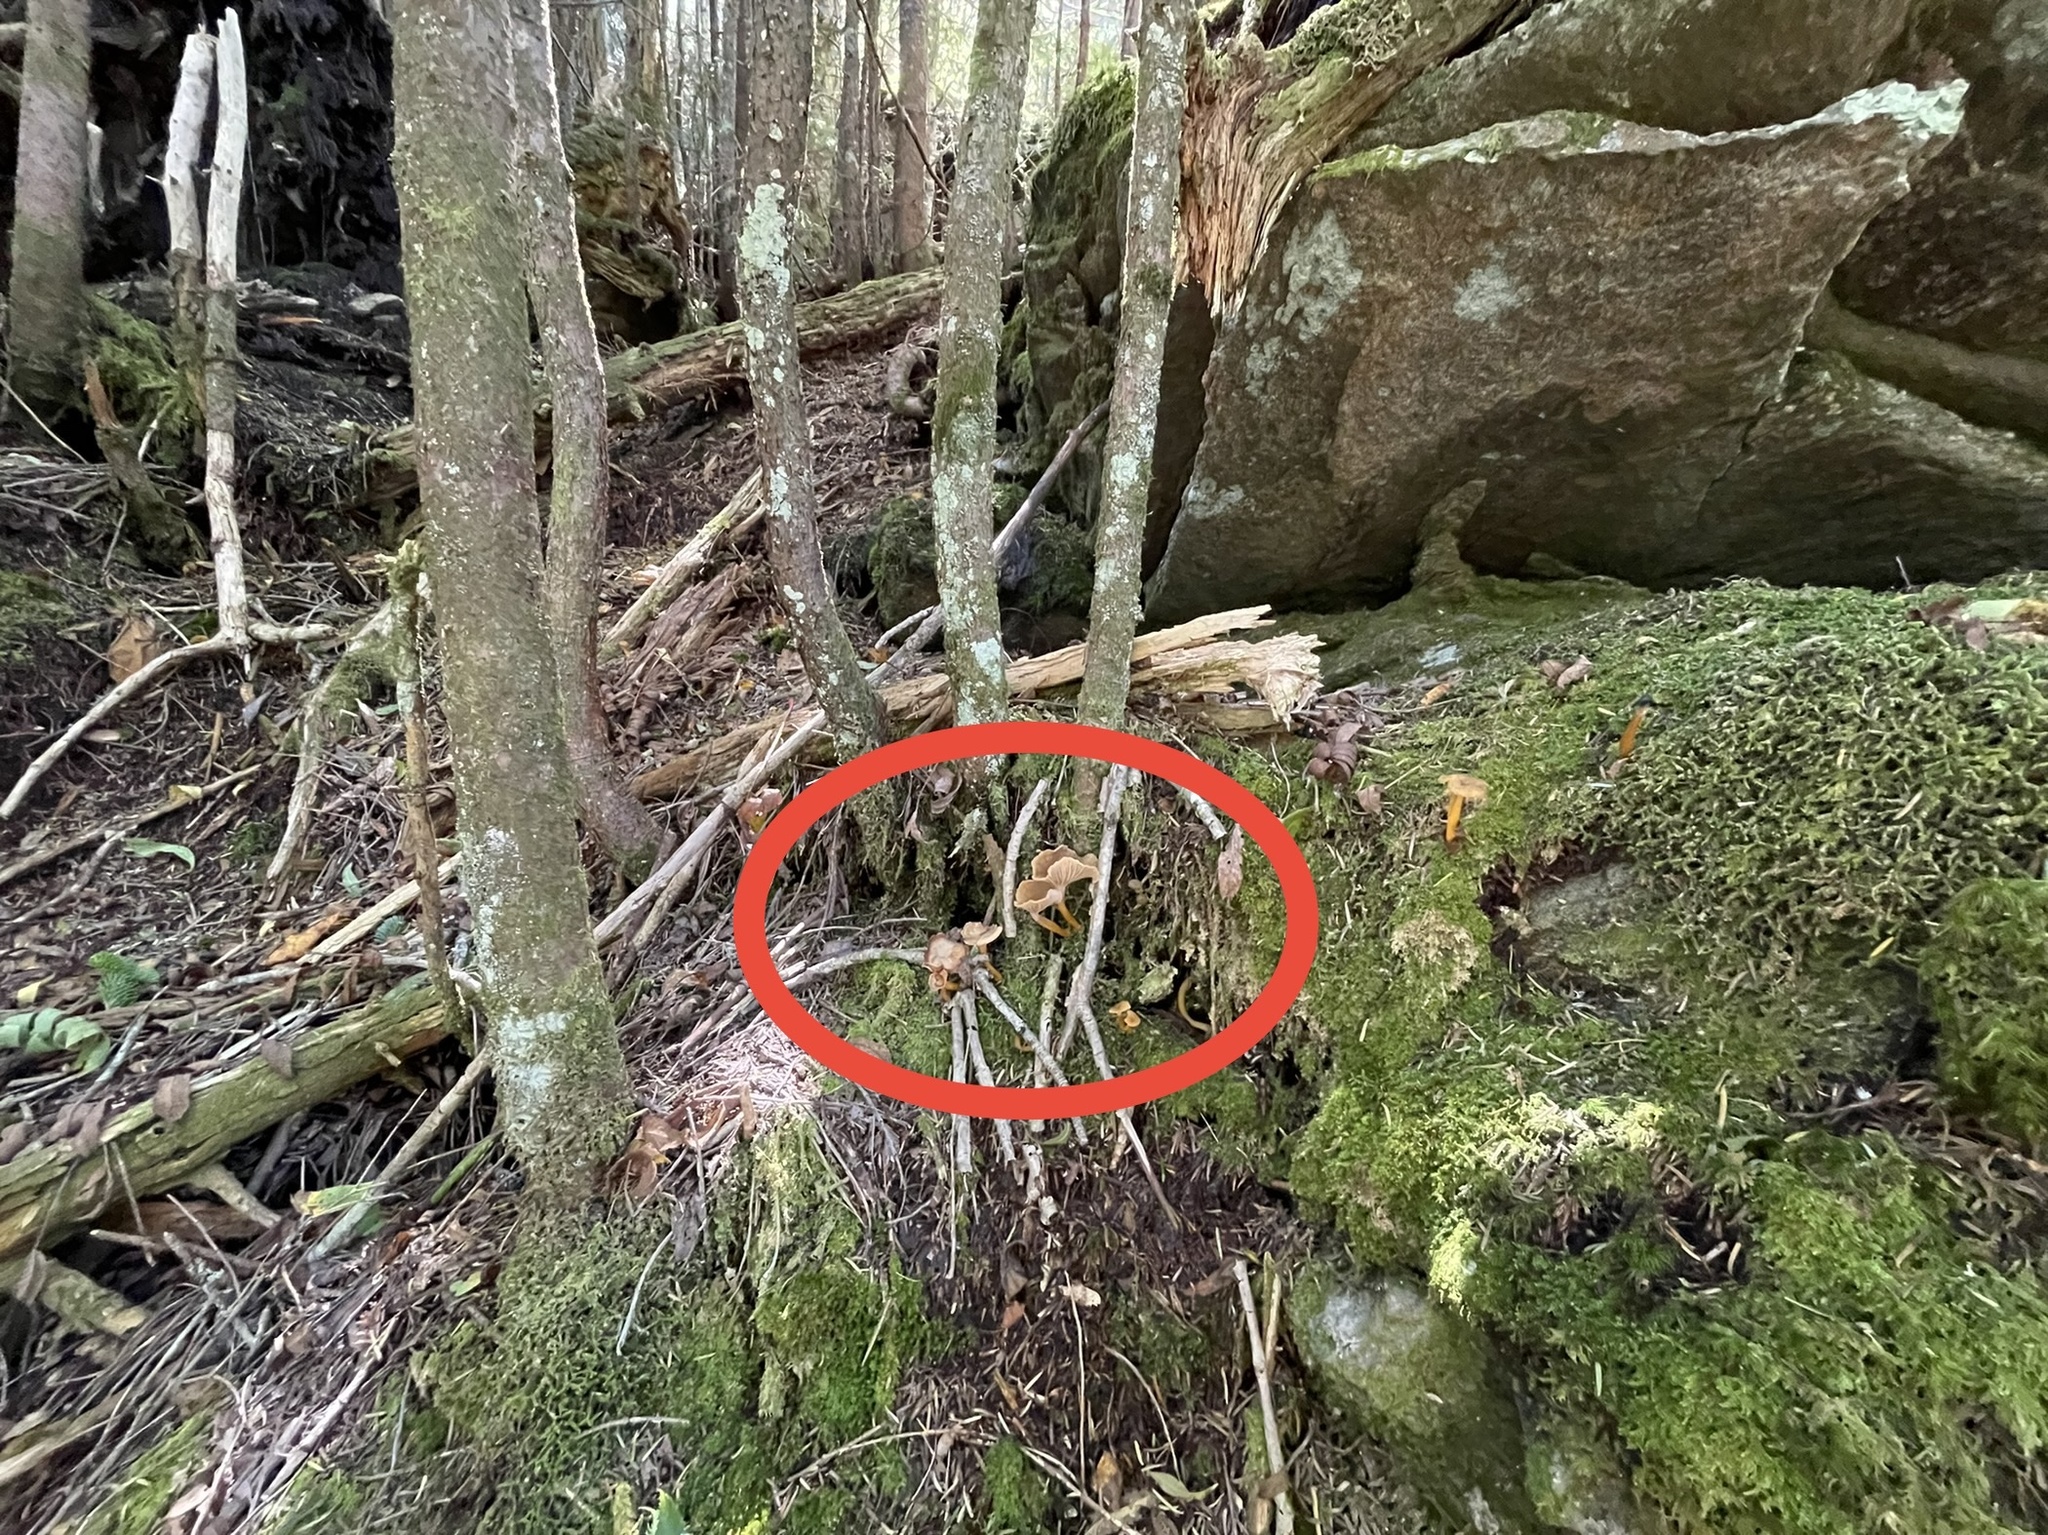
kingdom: Fungi
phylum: Basidiomycota
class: Agaricomycetes
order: Auriculariales
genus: Pseudohydnum
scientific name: Pseudohydnum gelatinosum
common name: Jelly tongue
